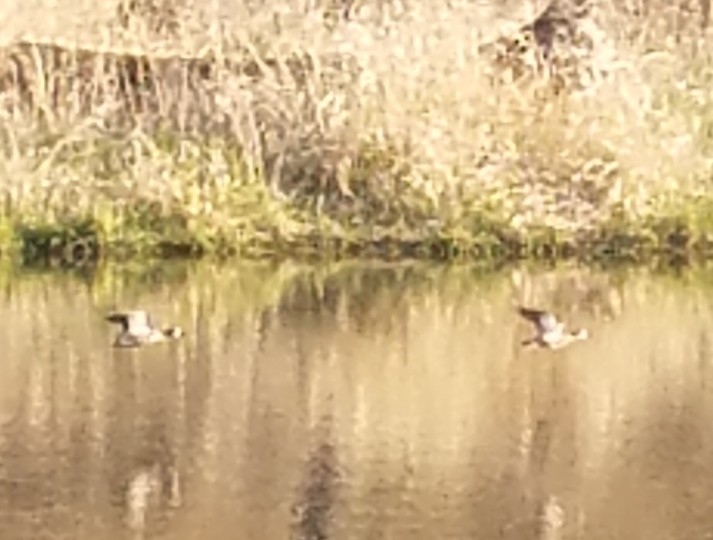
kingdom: Animalia
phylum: Chordata
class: Aves
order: Anseriformes
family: Anatidae
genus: Spatula
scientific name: Spatula discors
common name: Blue-winged teal
